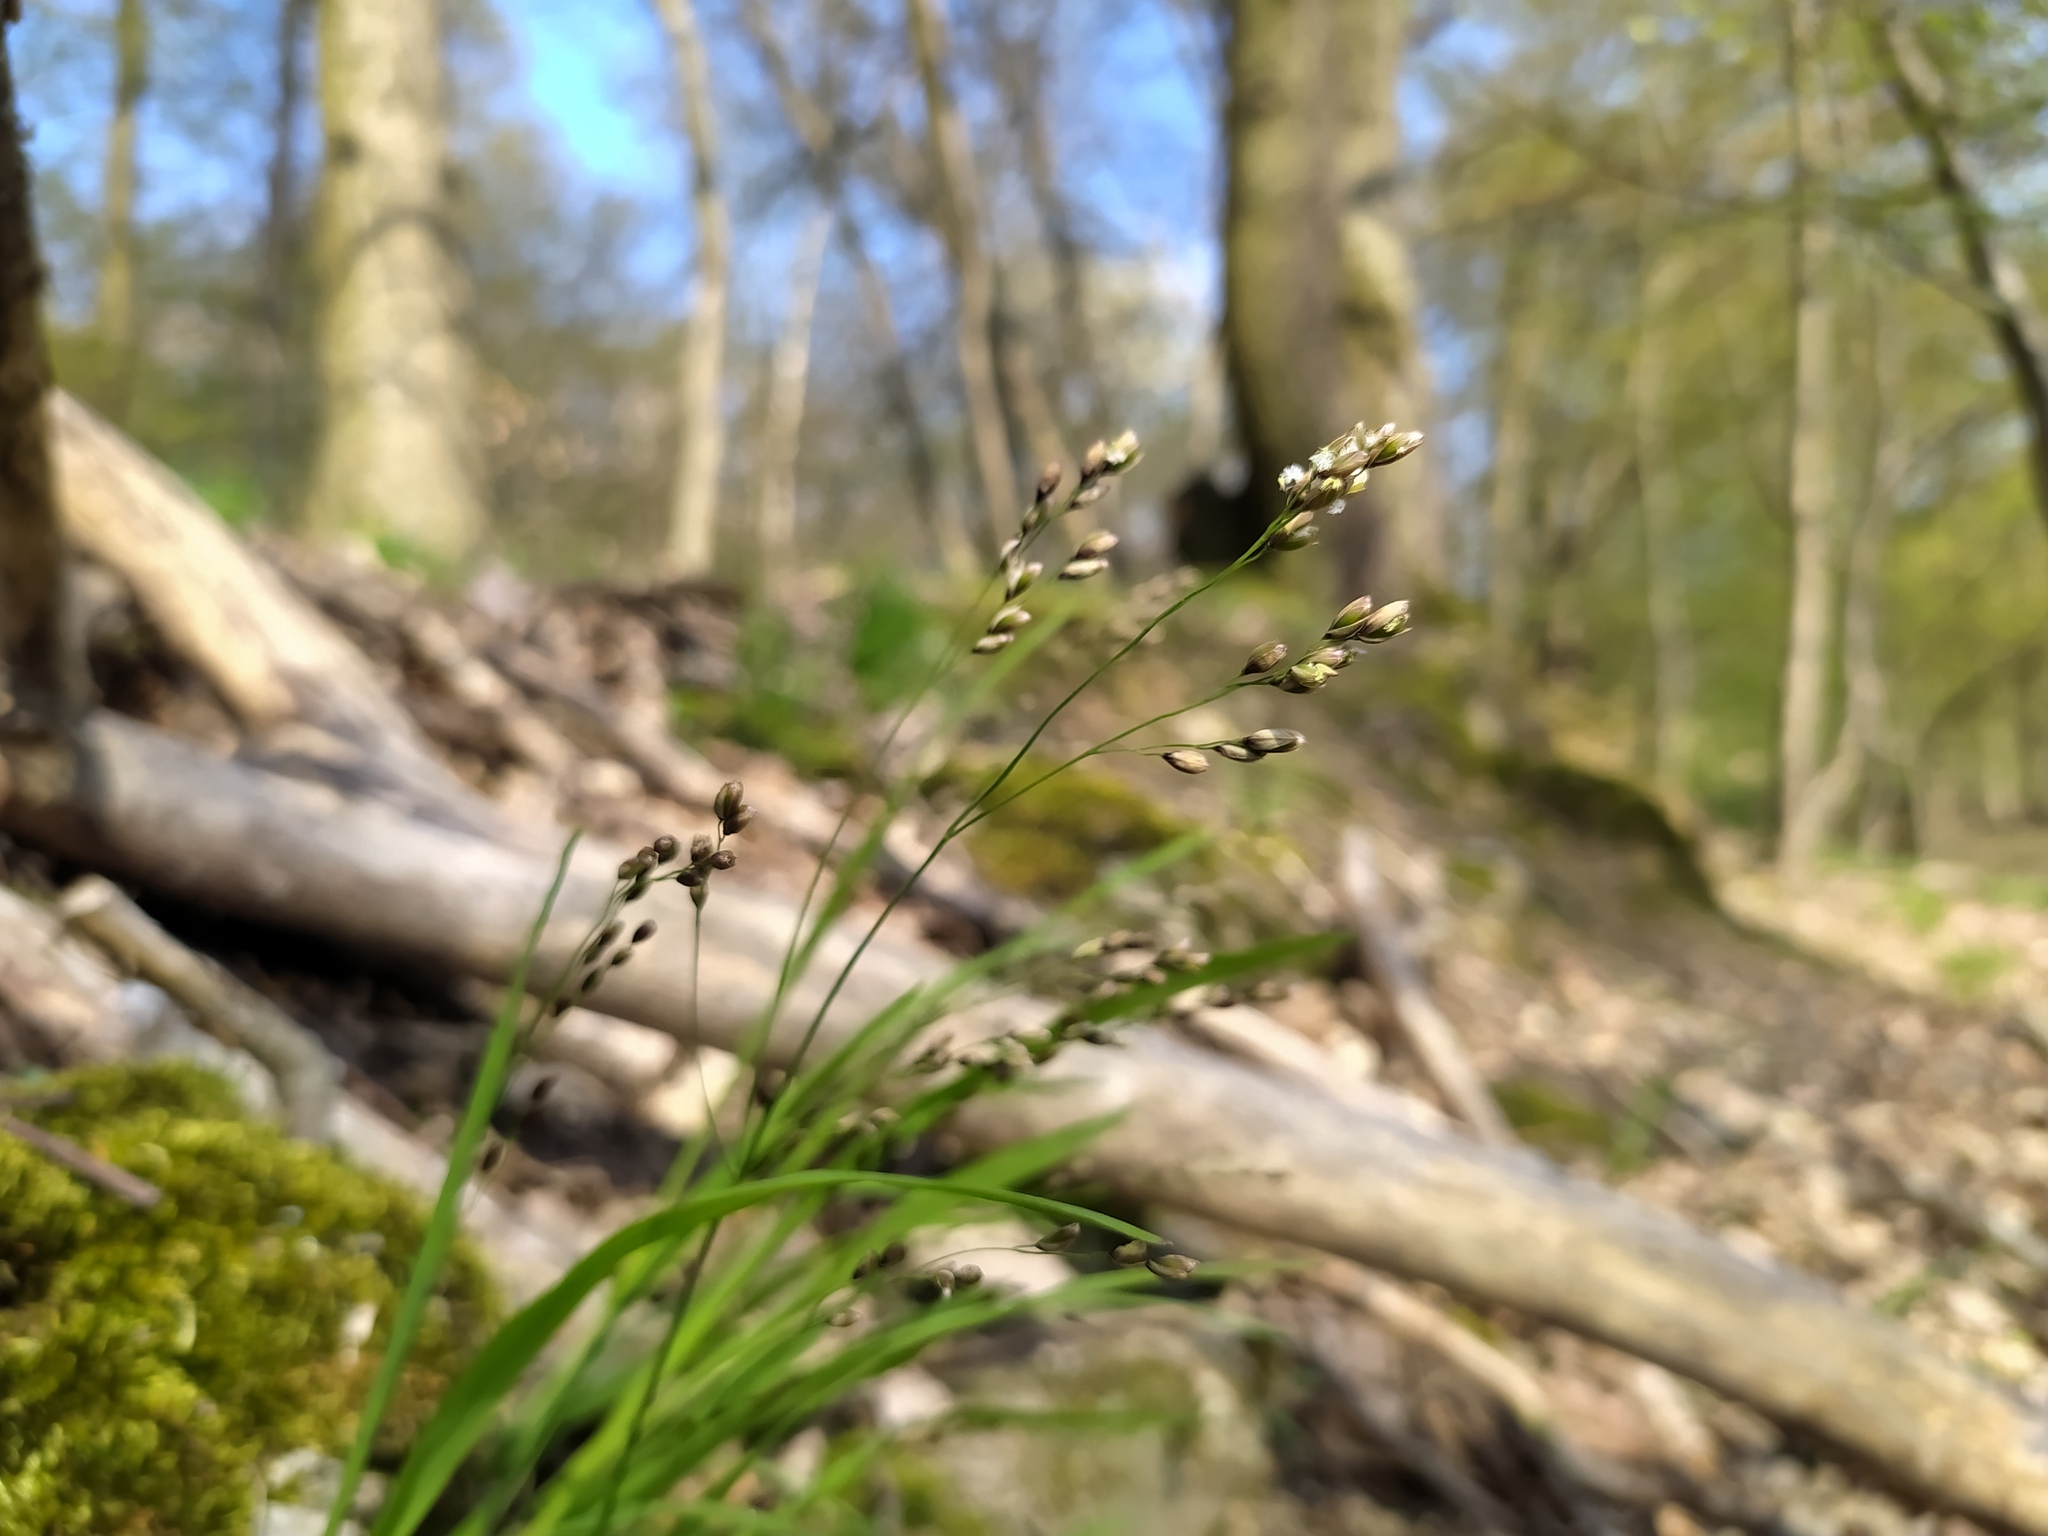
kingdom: Plantae
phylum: Tracheophyta
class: Liliopsida
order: Poales
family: Poaceae
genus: Melica
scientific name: Melica uniflora
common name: Wood melick
